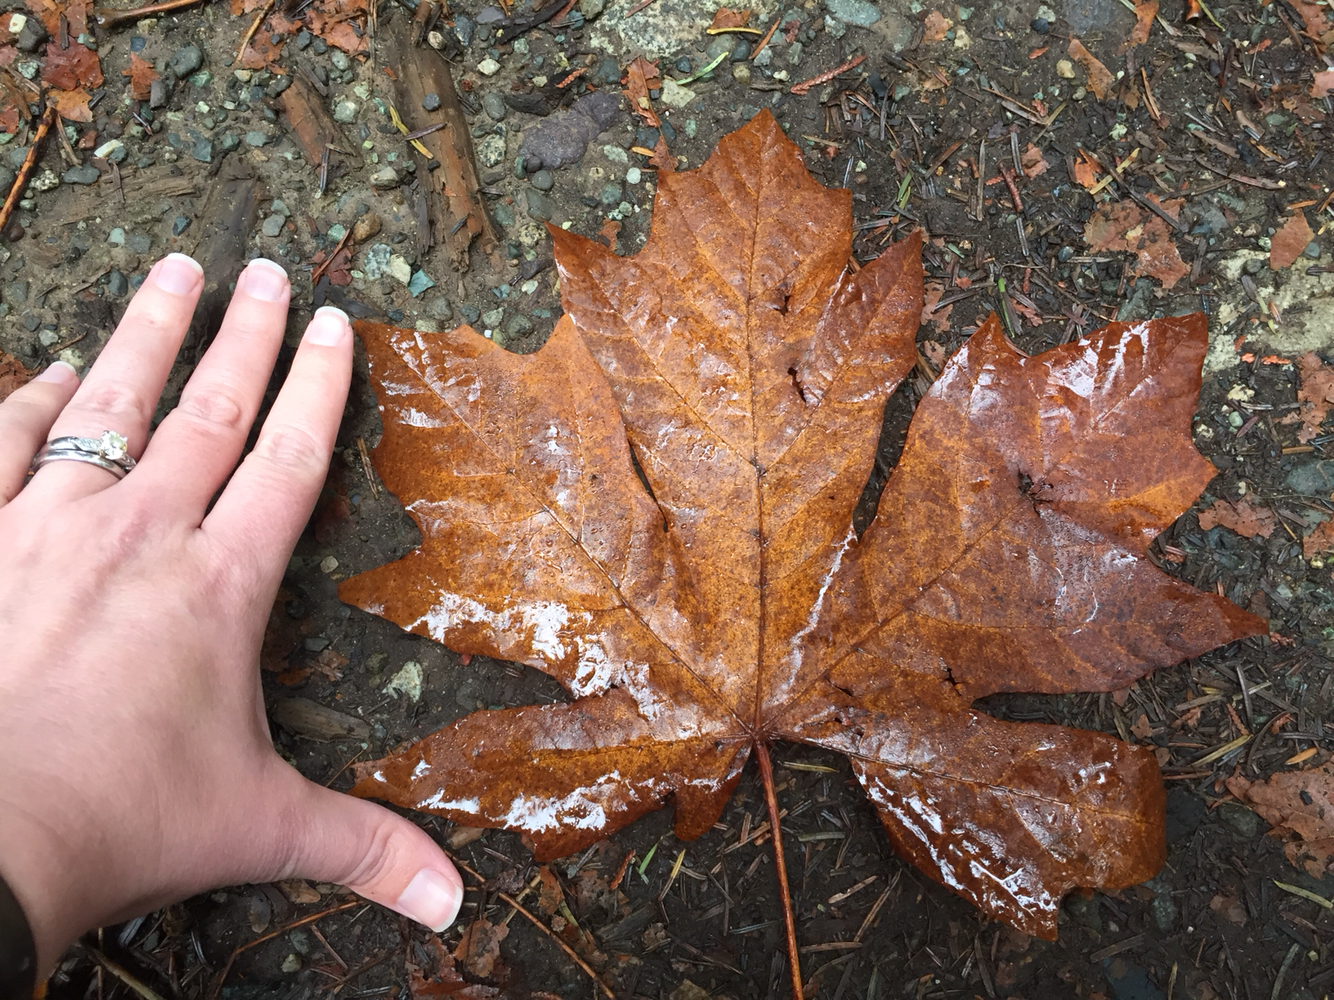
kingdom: Plantae
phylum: Tracheophyta
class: Magnoliopsida
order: Sapindales
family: Sapindaceae
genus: Acer
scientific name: Acer macrophyllum
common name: Oregon maple
